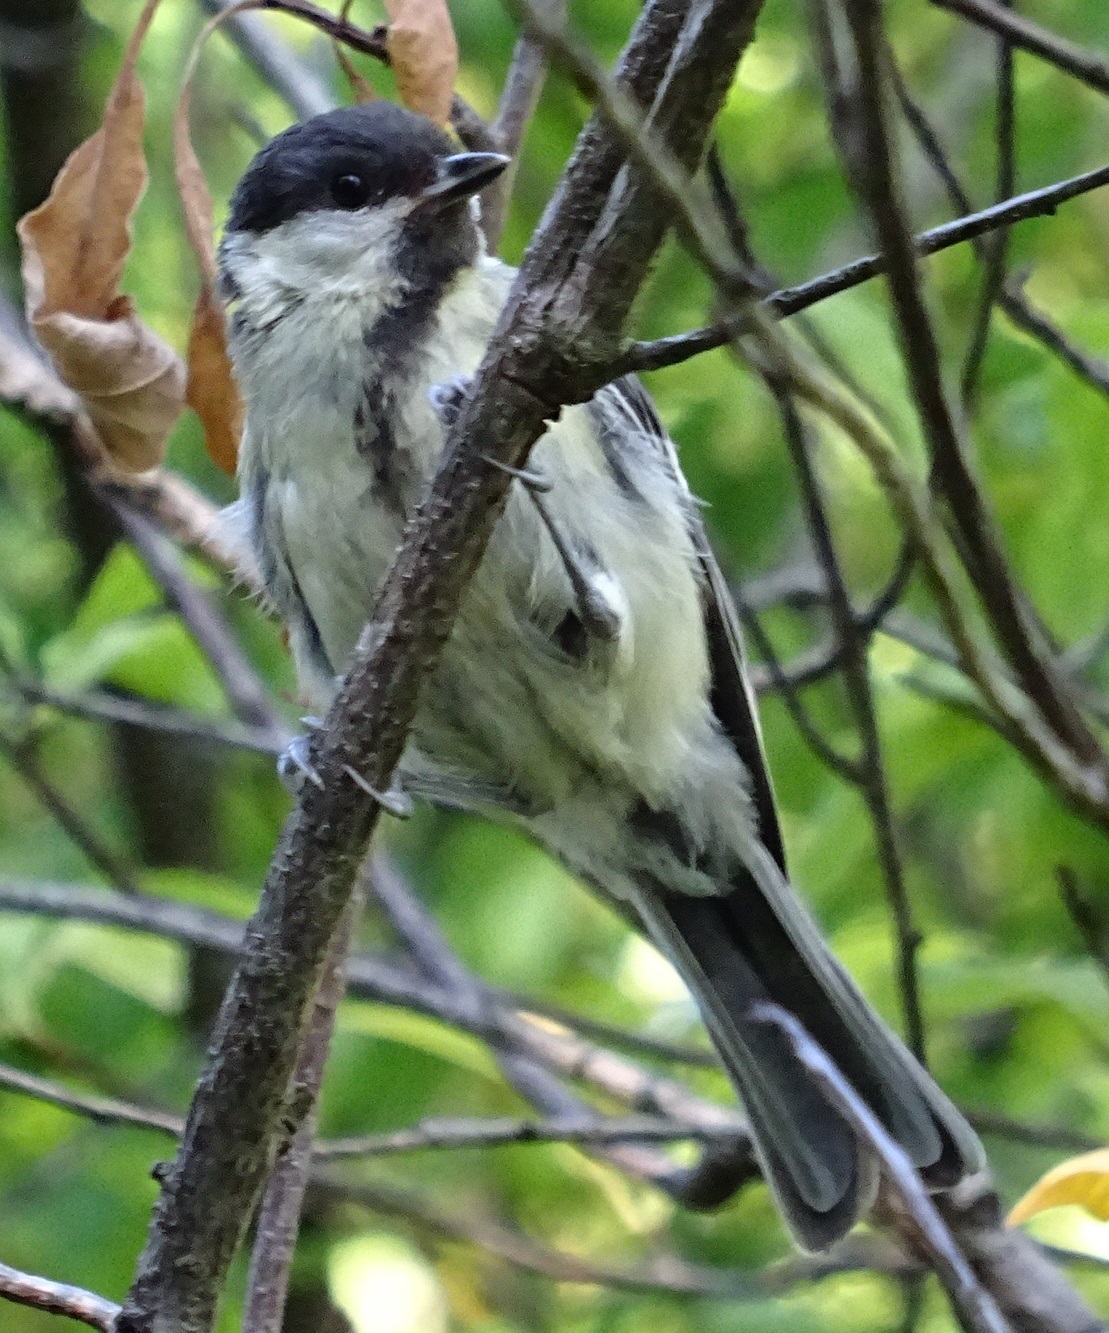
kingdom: Animalia
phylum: Chordata
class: Aves
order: Passeriformes
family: Paridae
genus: Parus
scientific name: Parus major
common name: Great tit
